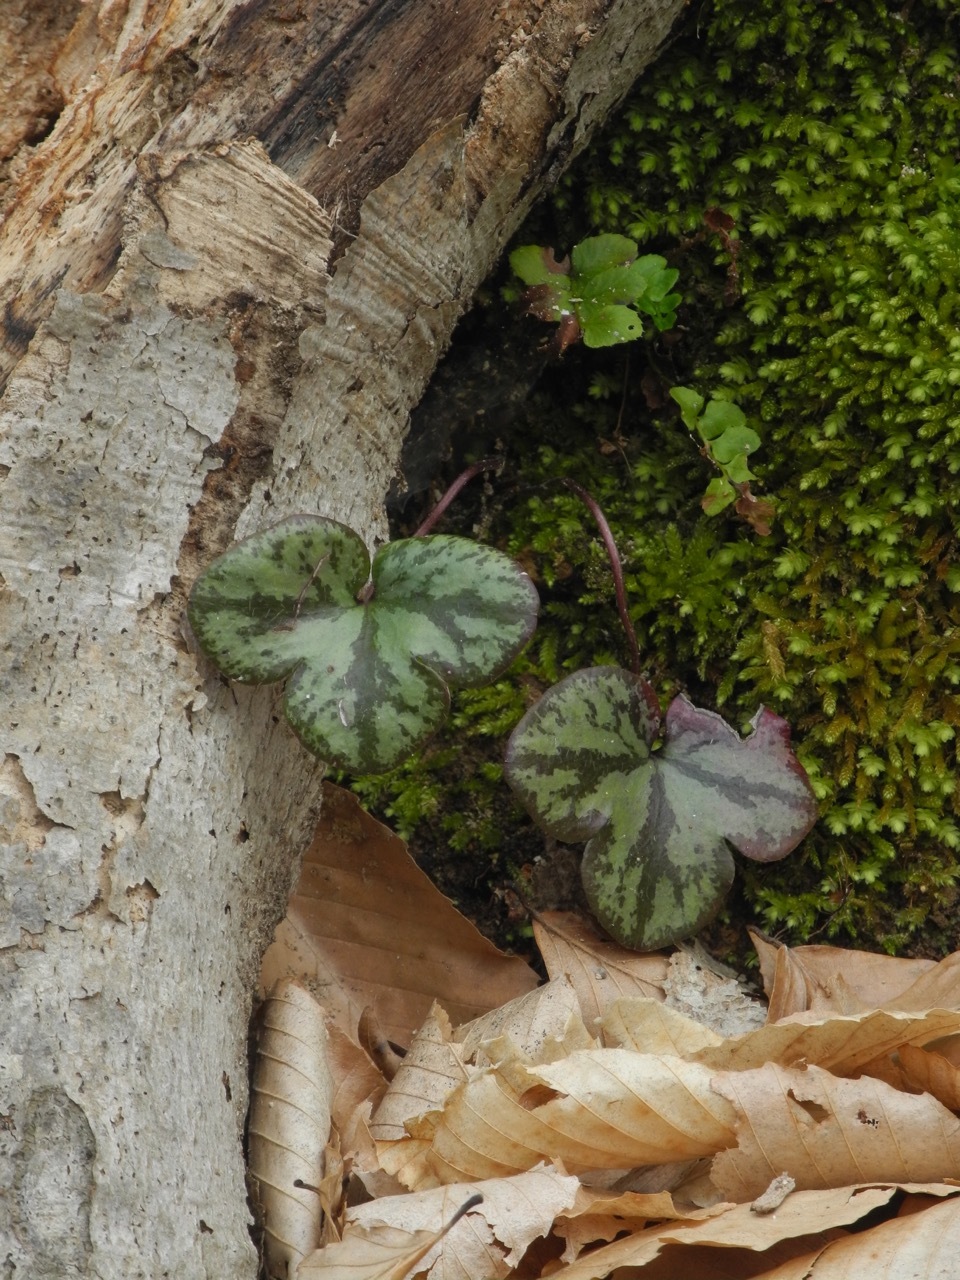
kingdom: Plantae
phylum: Tracheophyta
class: Magnoliopsida
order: Ranunculales
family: Ranunculaceae
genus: Hepatica
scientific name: Hepatica americana
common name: American hepatica
